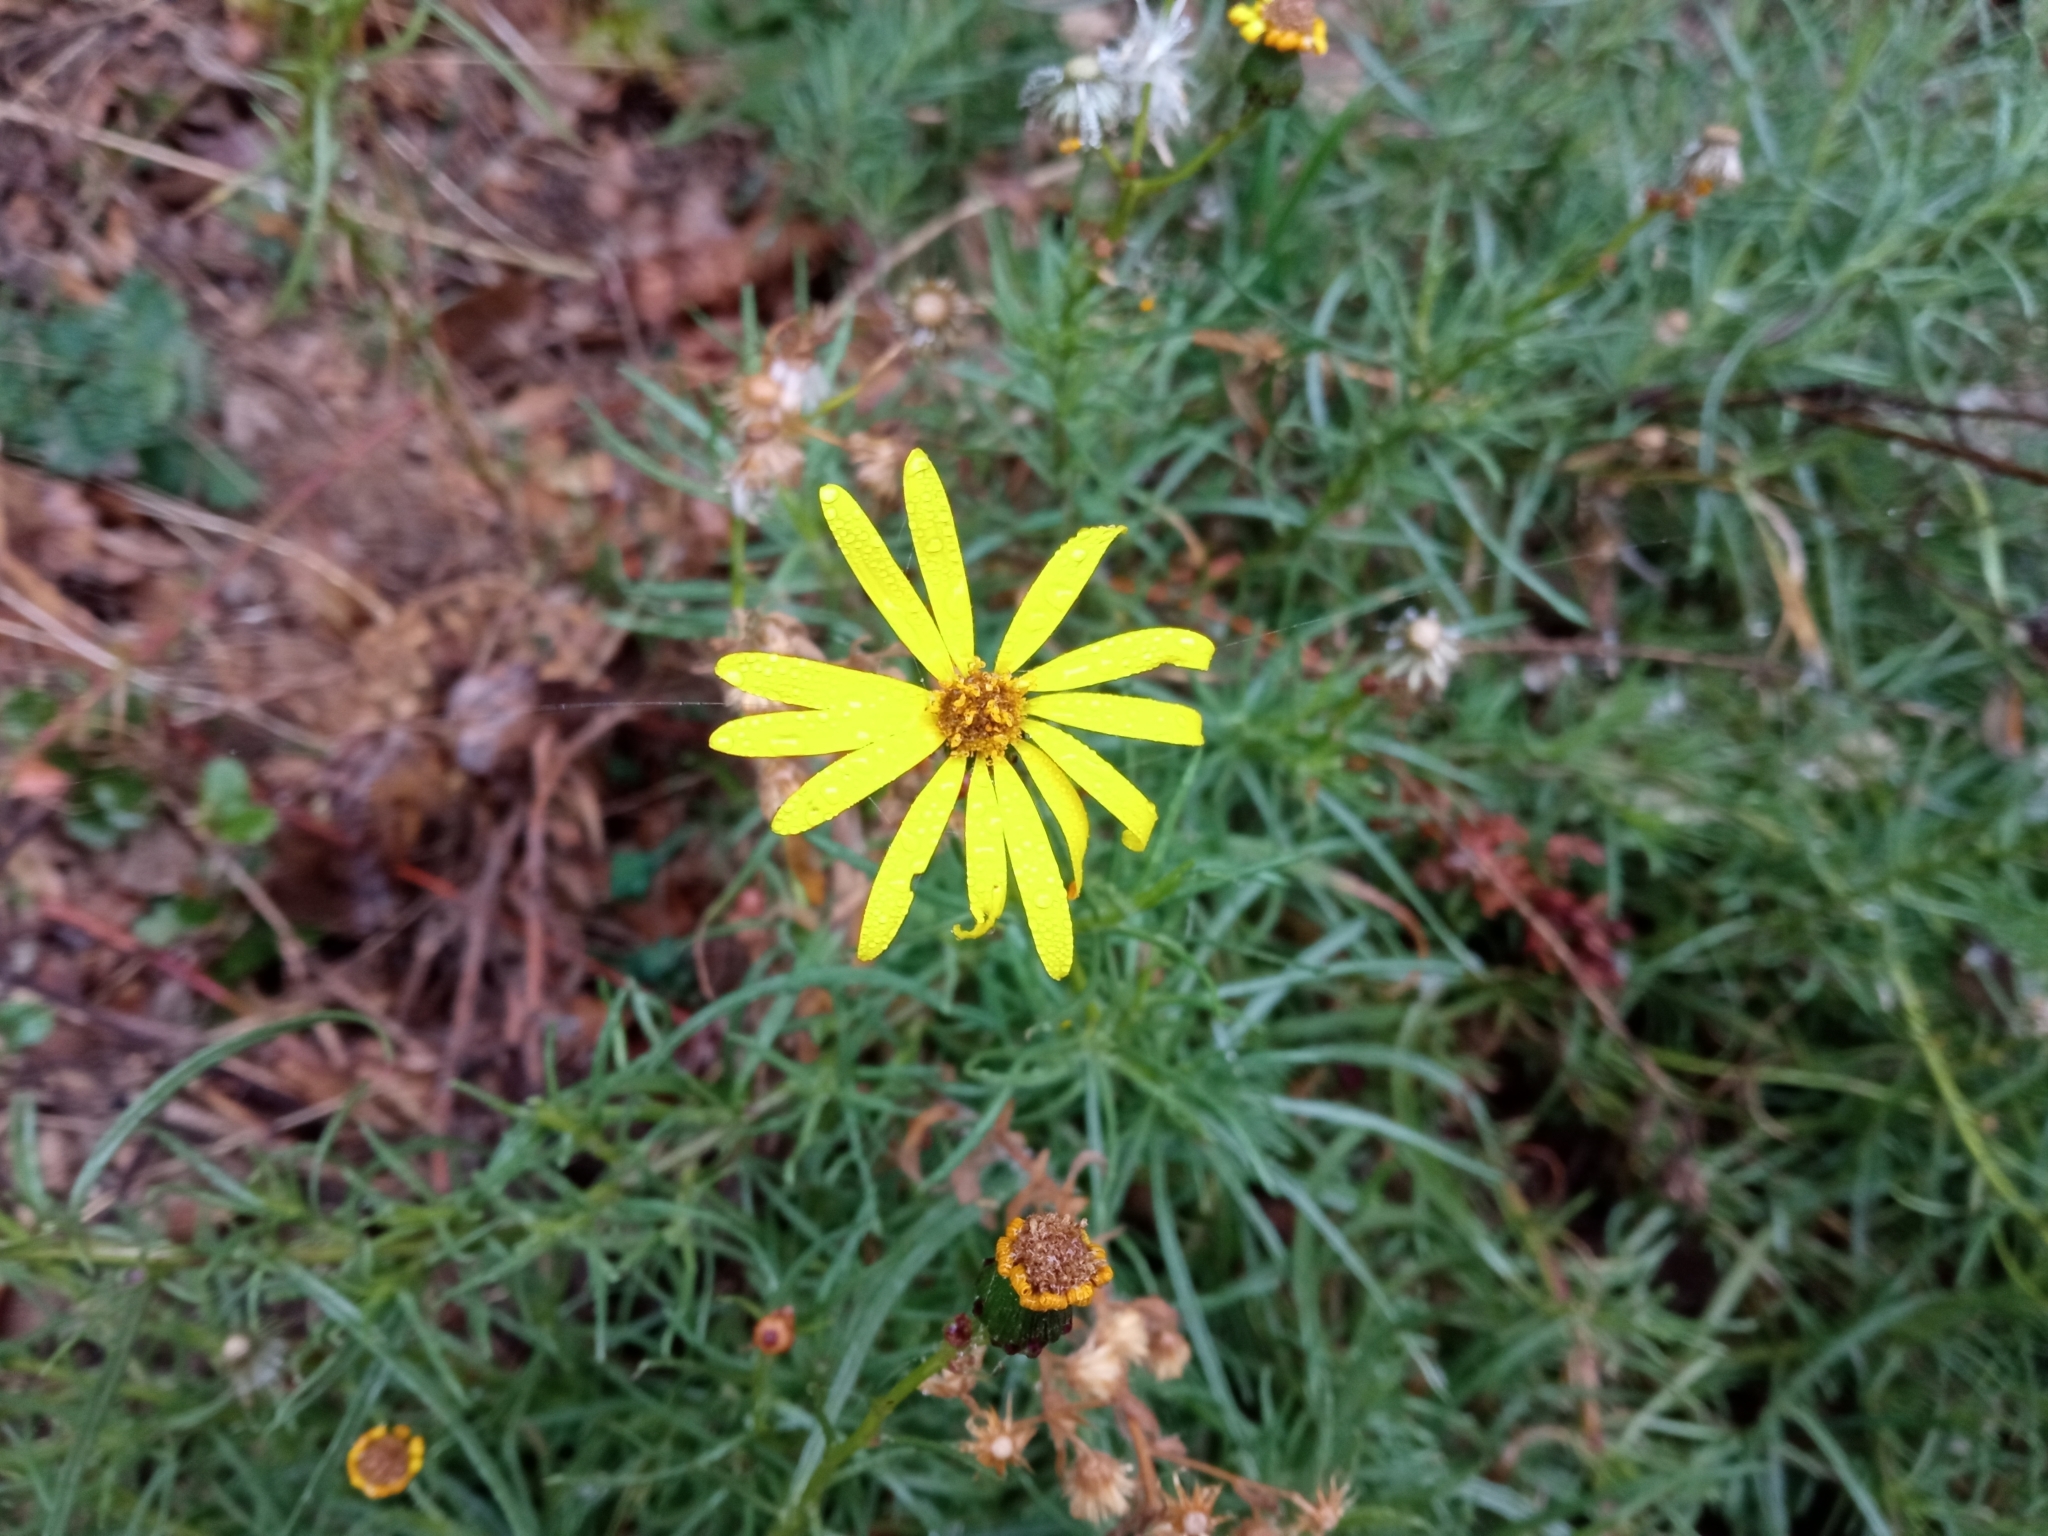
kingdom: Plantae
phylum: Tracheophyta
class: Magnoliopsida
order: Asterales
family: Asteraceae
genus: Senecio
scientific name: Senecio inaequidens
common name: Narrow-leaved ragwort
